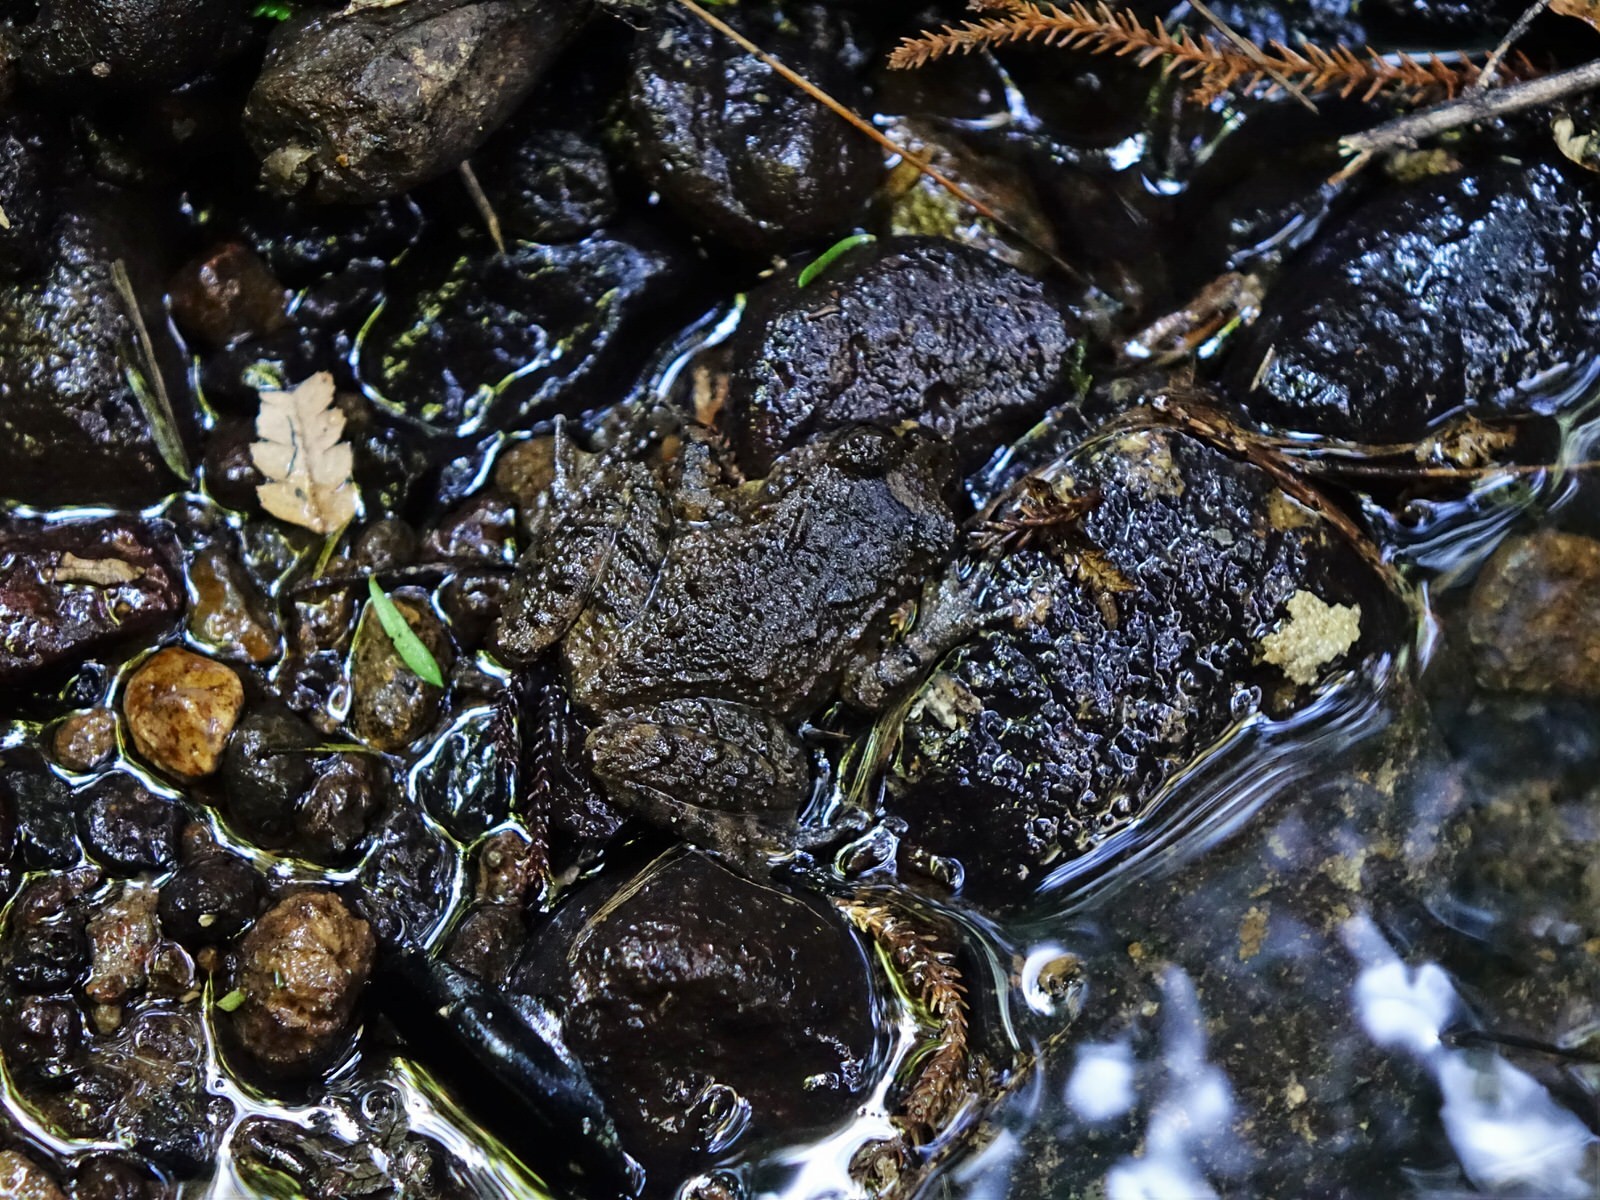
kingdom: Animalia
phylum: Chordata
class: Amphibia
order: Anura
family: Leiopelmatidae
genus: Leiopelma
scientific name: Leiopelma hochstetteri
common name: Hochstetters new zealand frog
